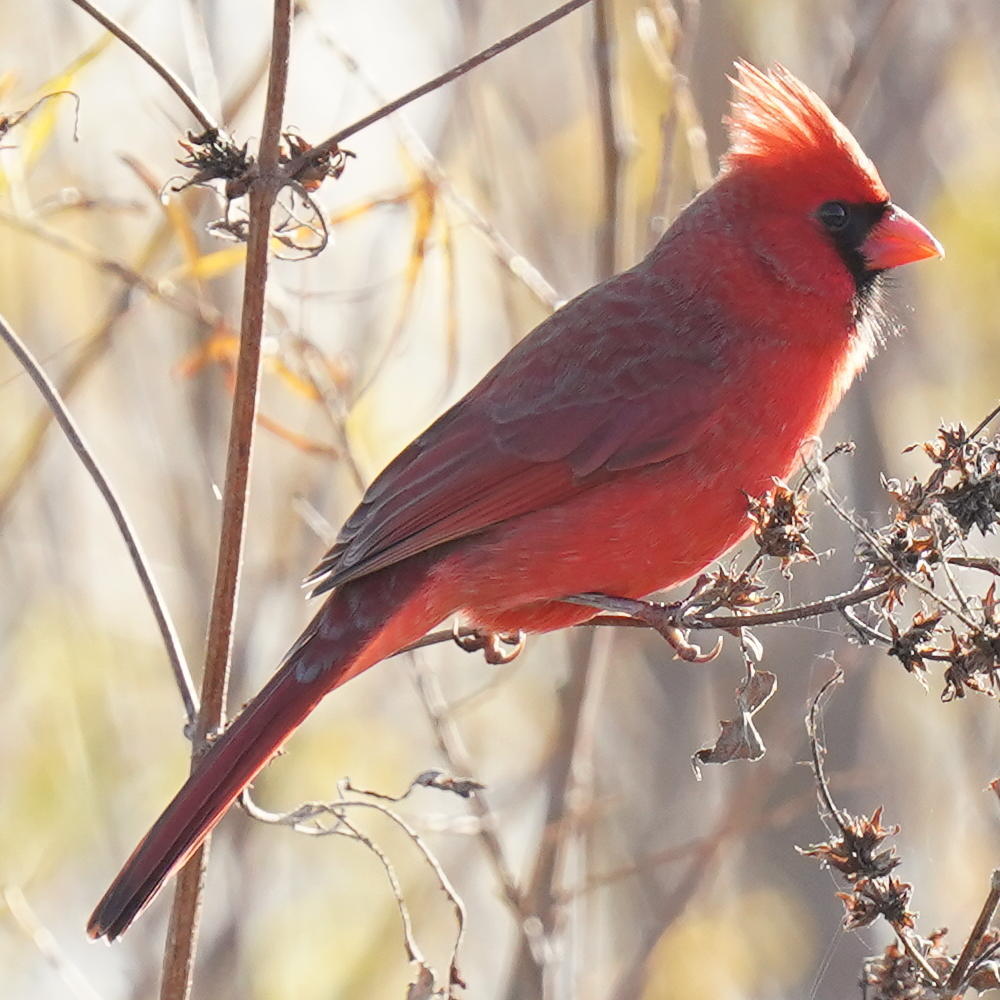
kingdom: Animalia
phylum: Chordata
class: Aves
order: Passeriformes
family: Cardinalidae
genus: Cardinalis
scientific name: Cardinalis cardinalis
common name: Northern cardinal
